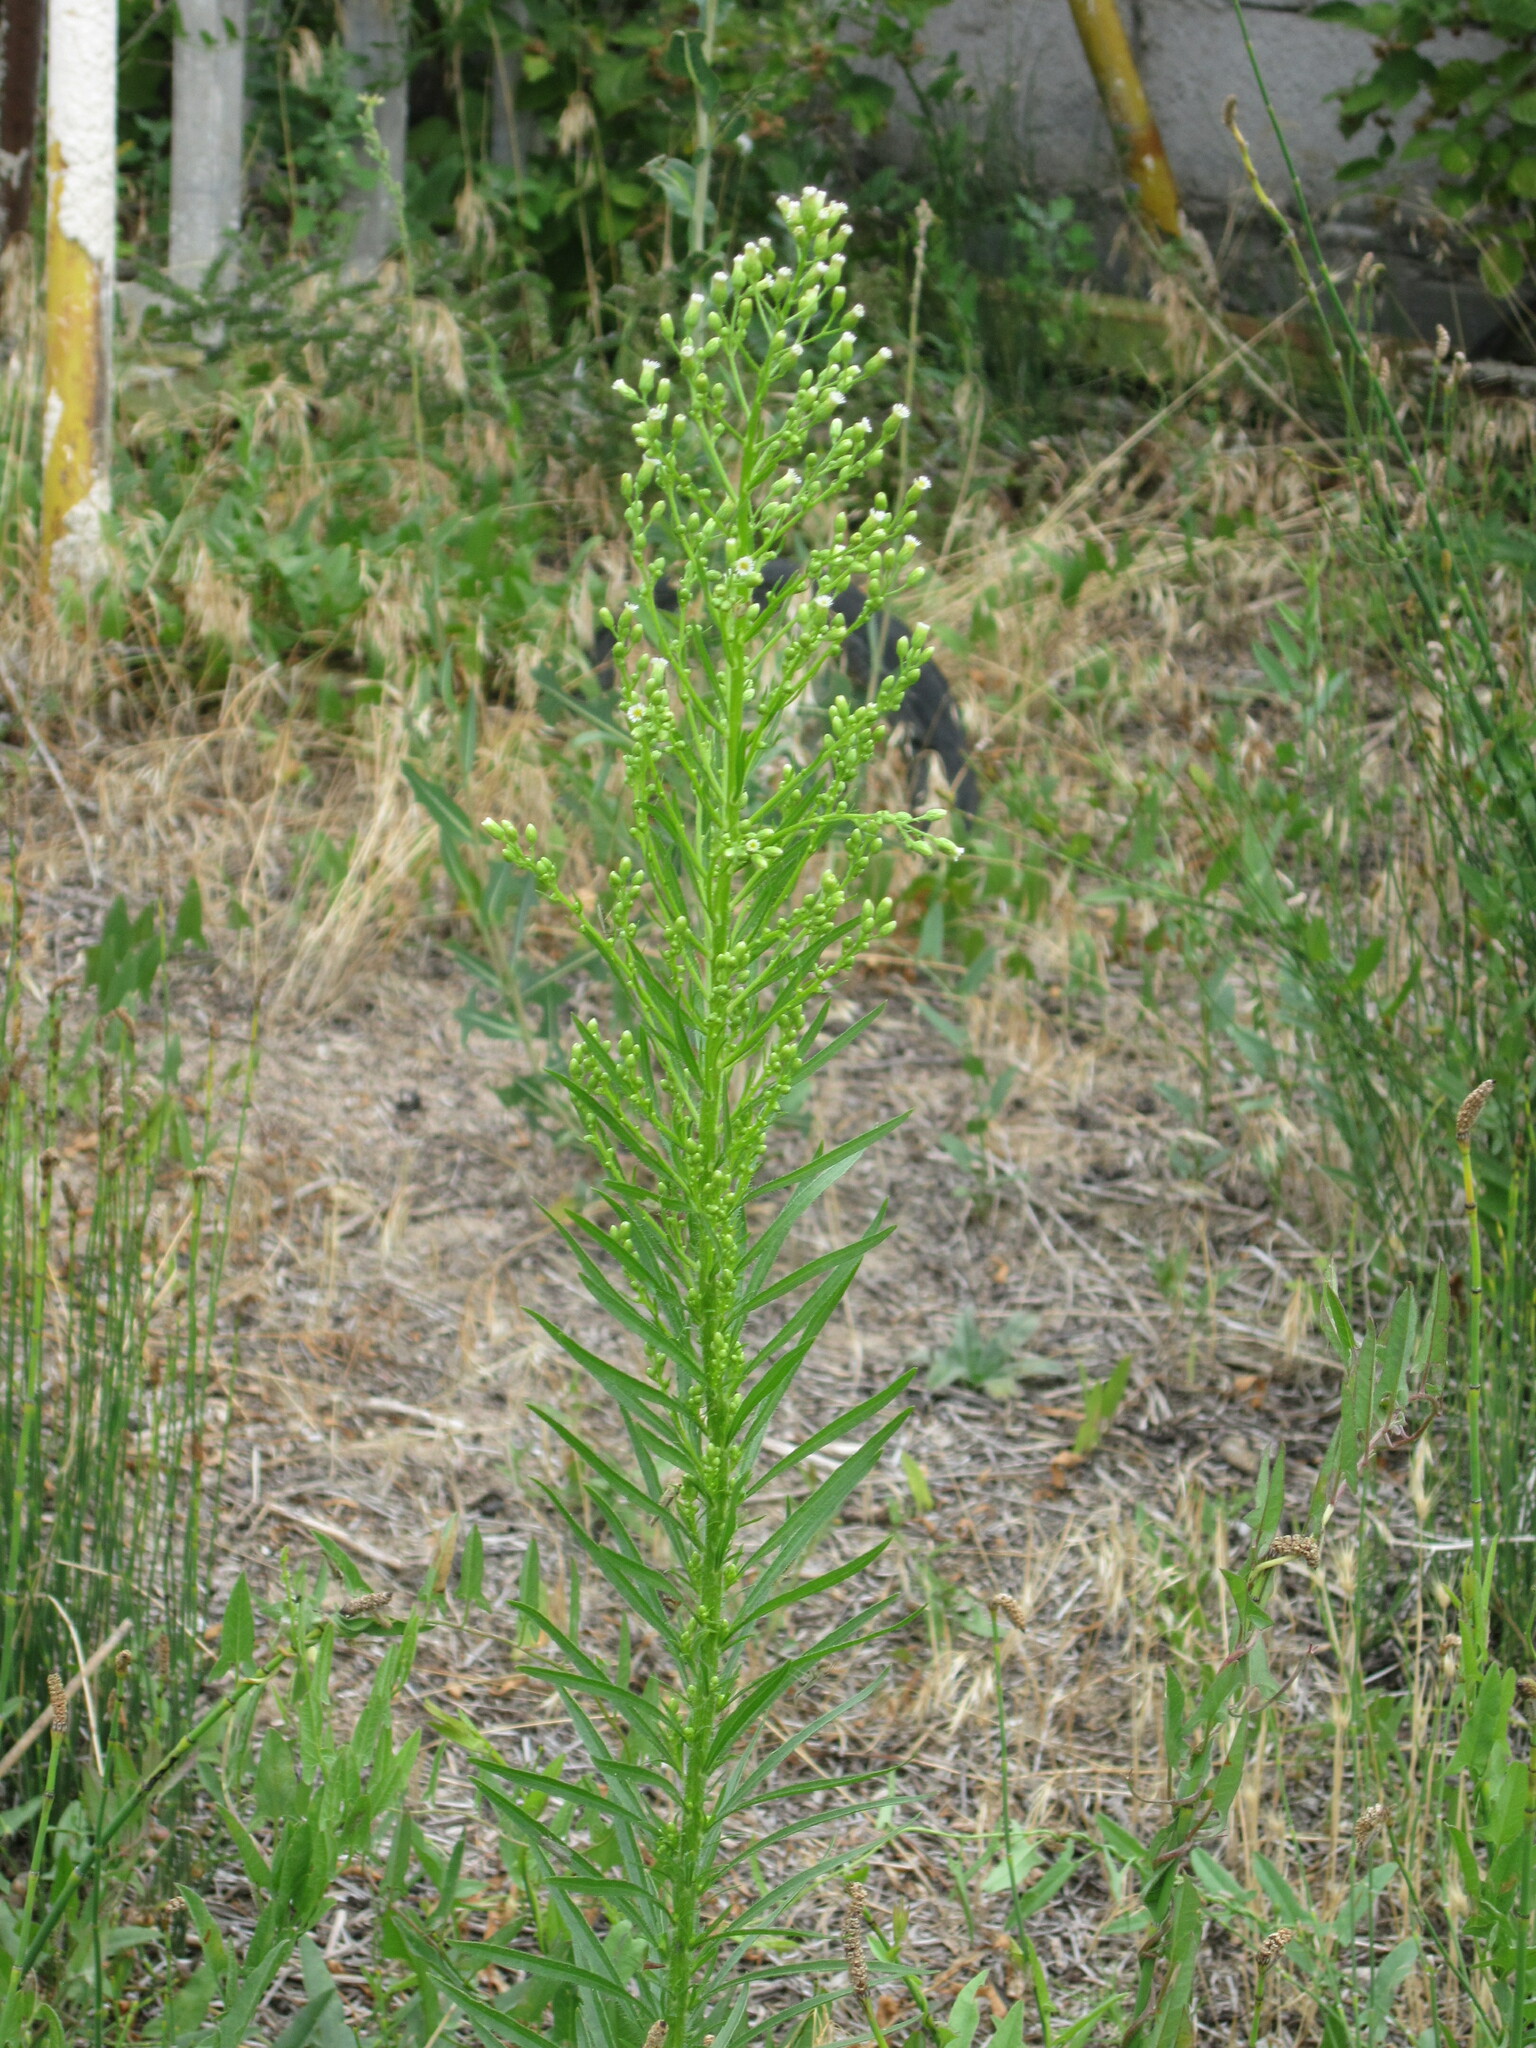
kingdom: Plantae
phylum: Tracheophyta
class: Magnoliopsida
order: Asterales
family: Asteraceae
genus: Erigeron
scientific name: Erigeron canadensis
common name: Canadian fleabane
